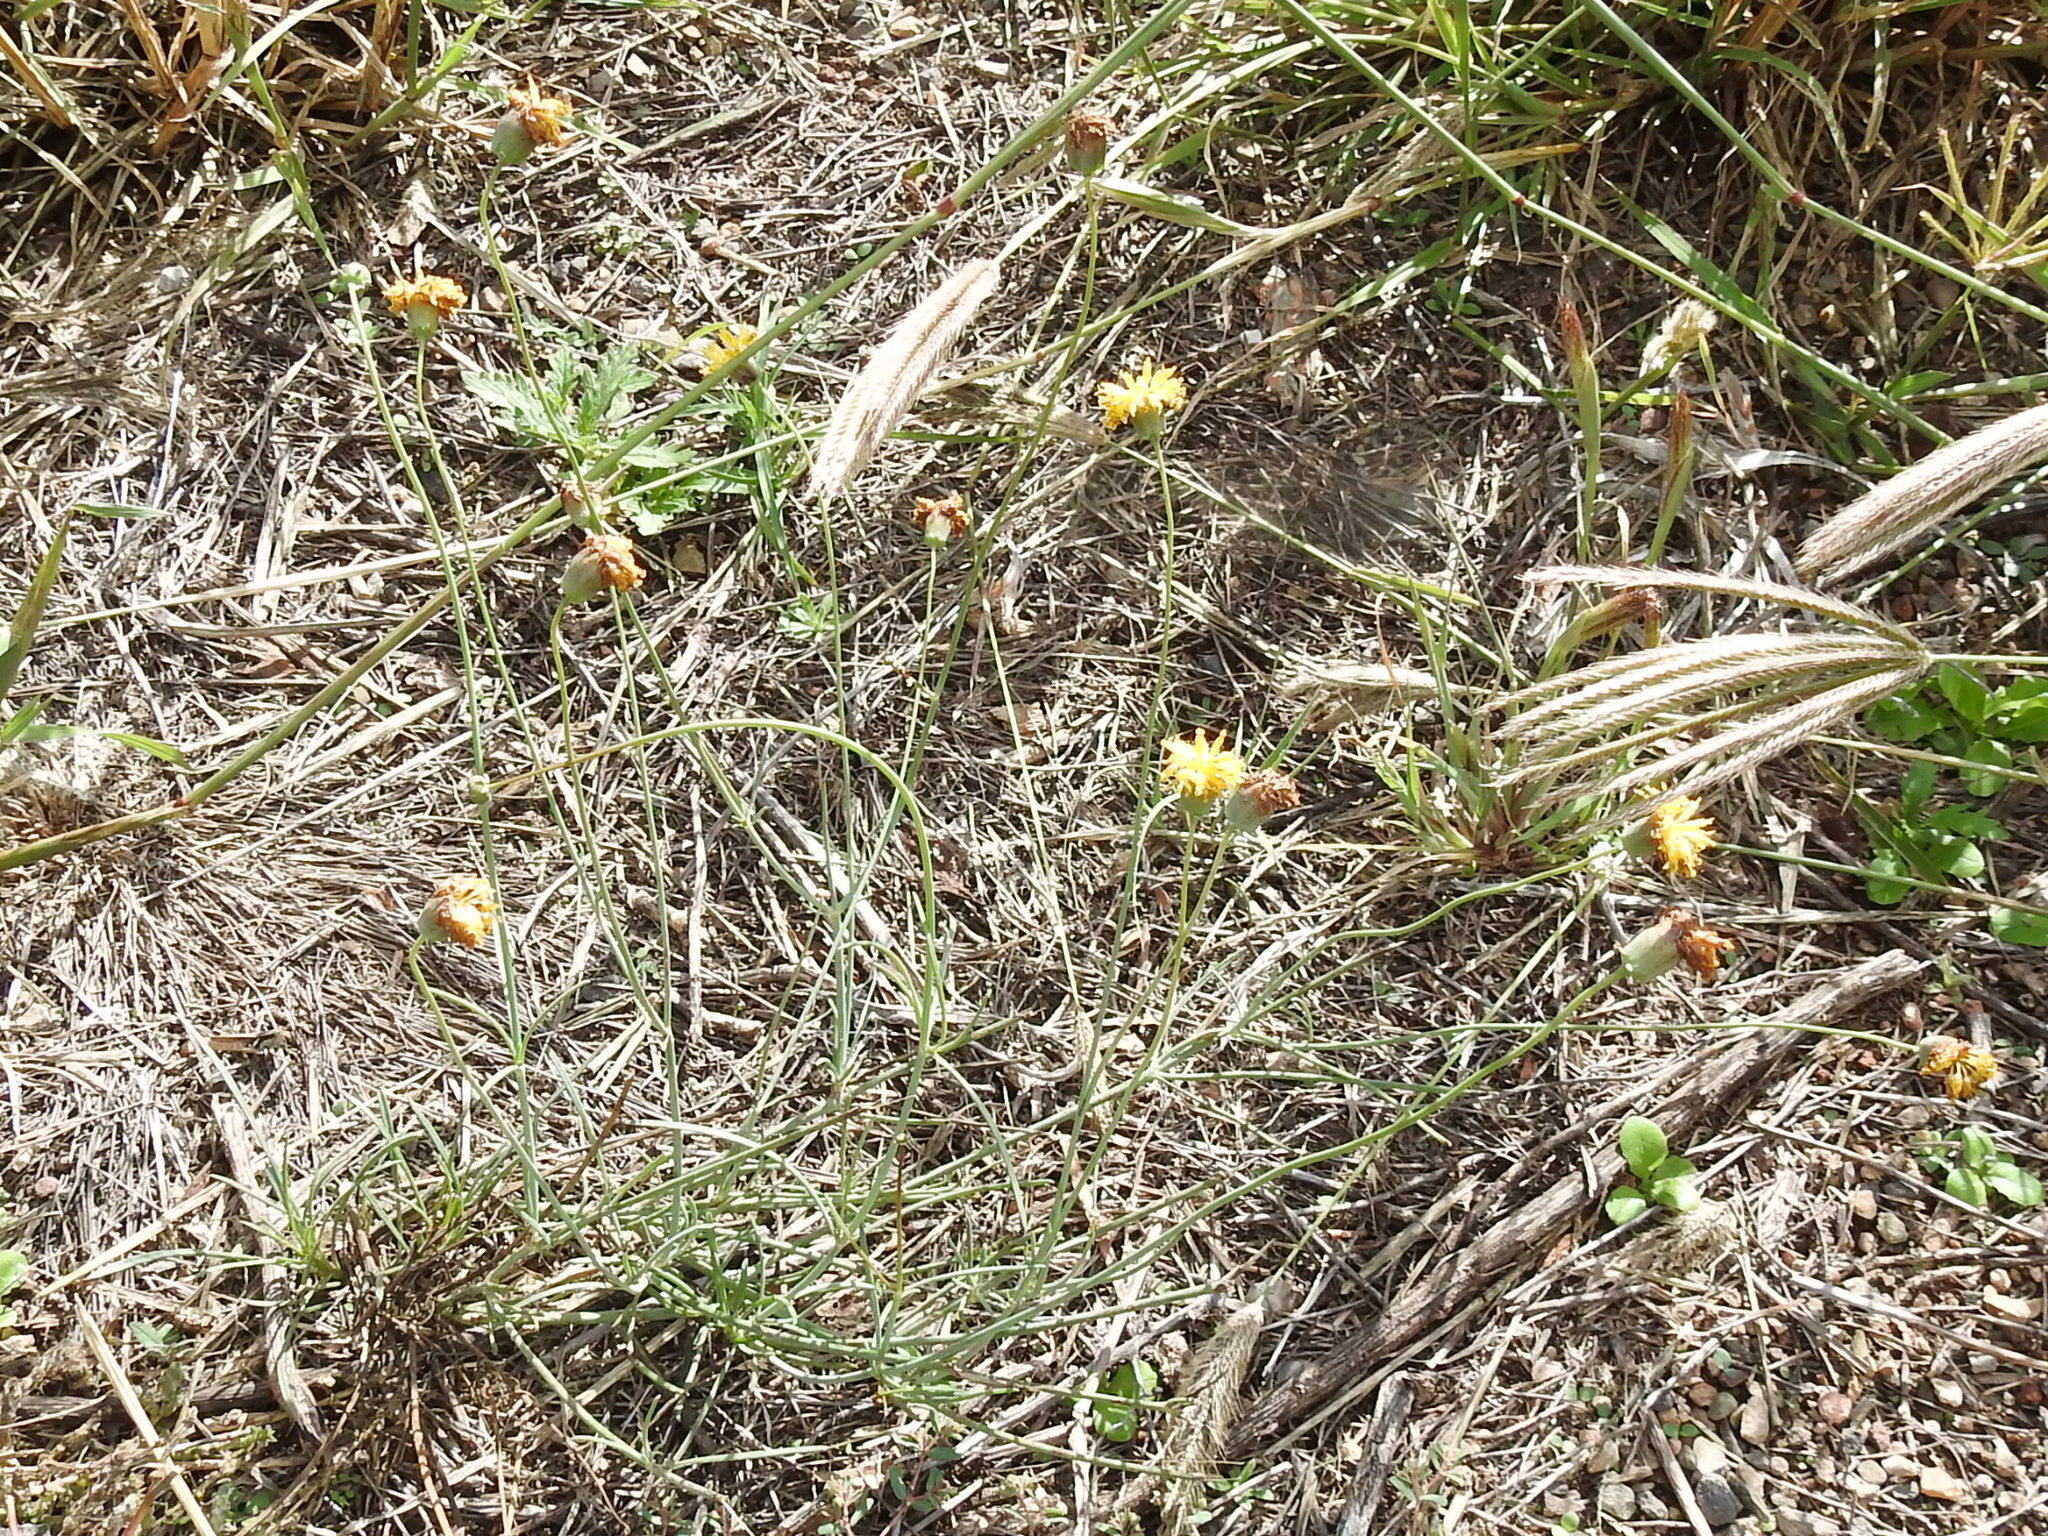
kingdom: Plantae
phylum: Tracheophyta
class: Magnoliopsida
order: Asterales
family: Asteraceae
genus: Thelesperma
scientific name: Thelesperma megapotamicum
